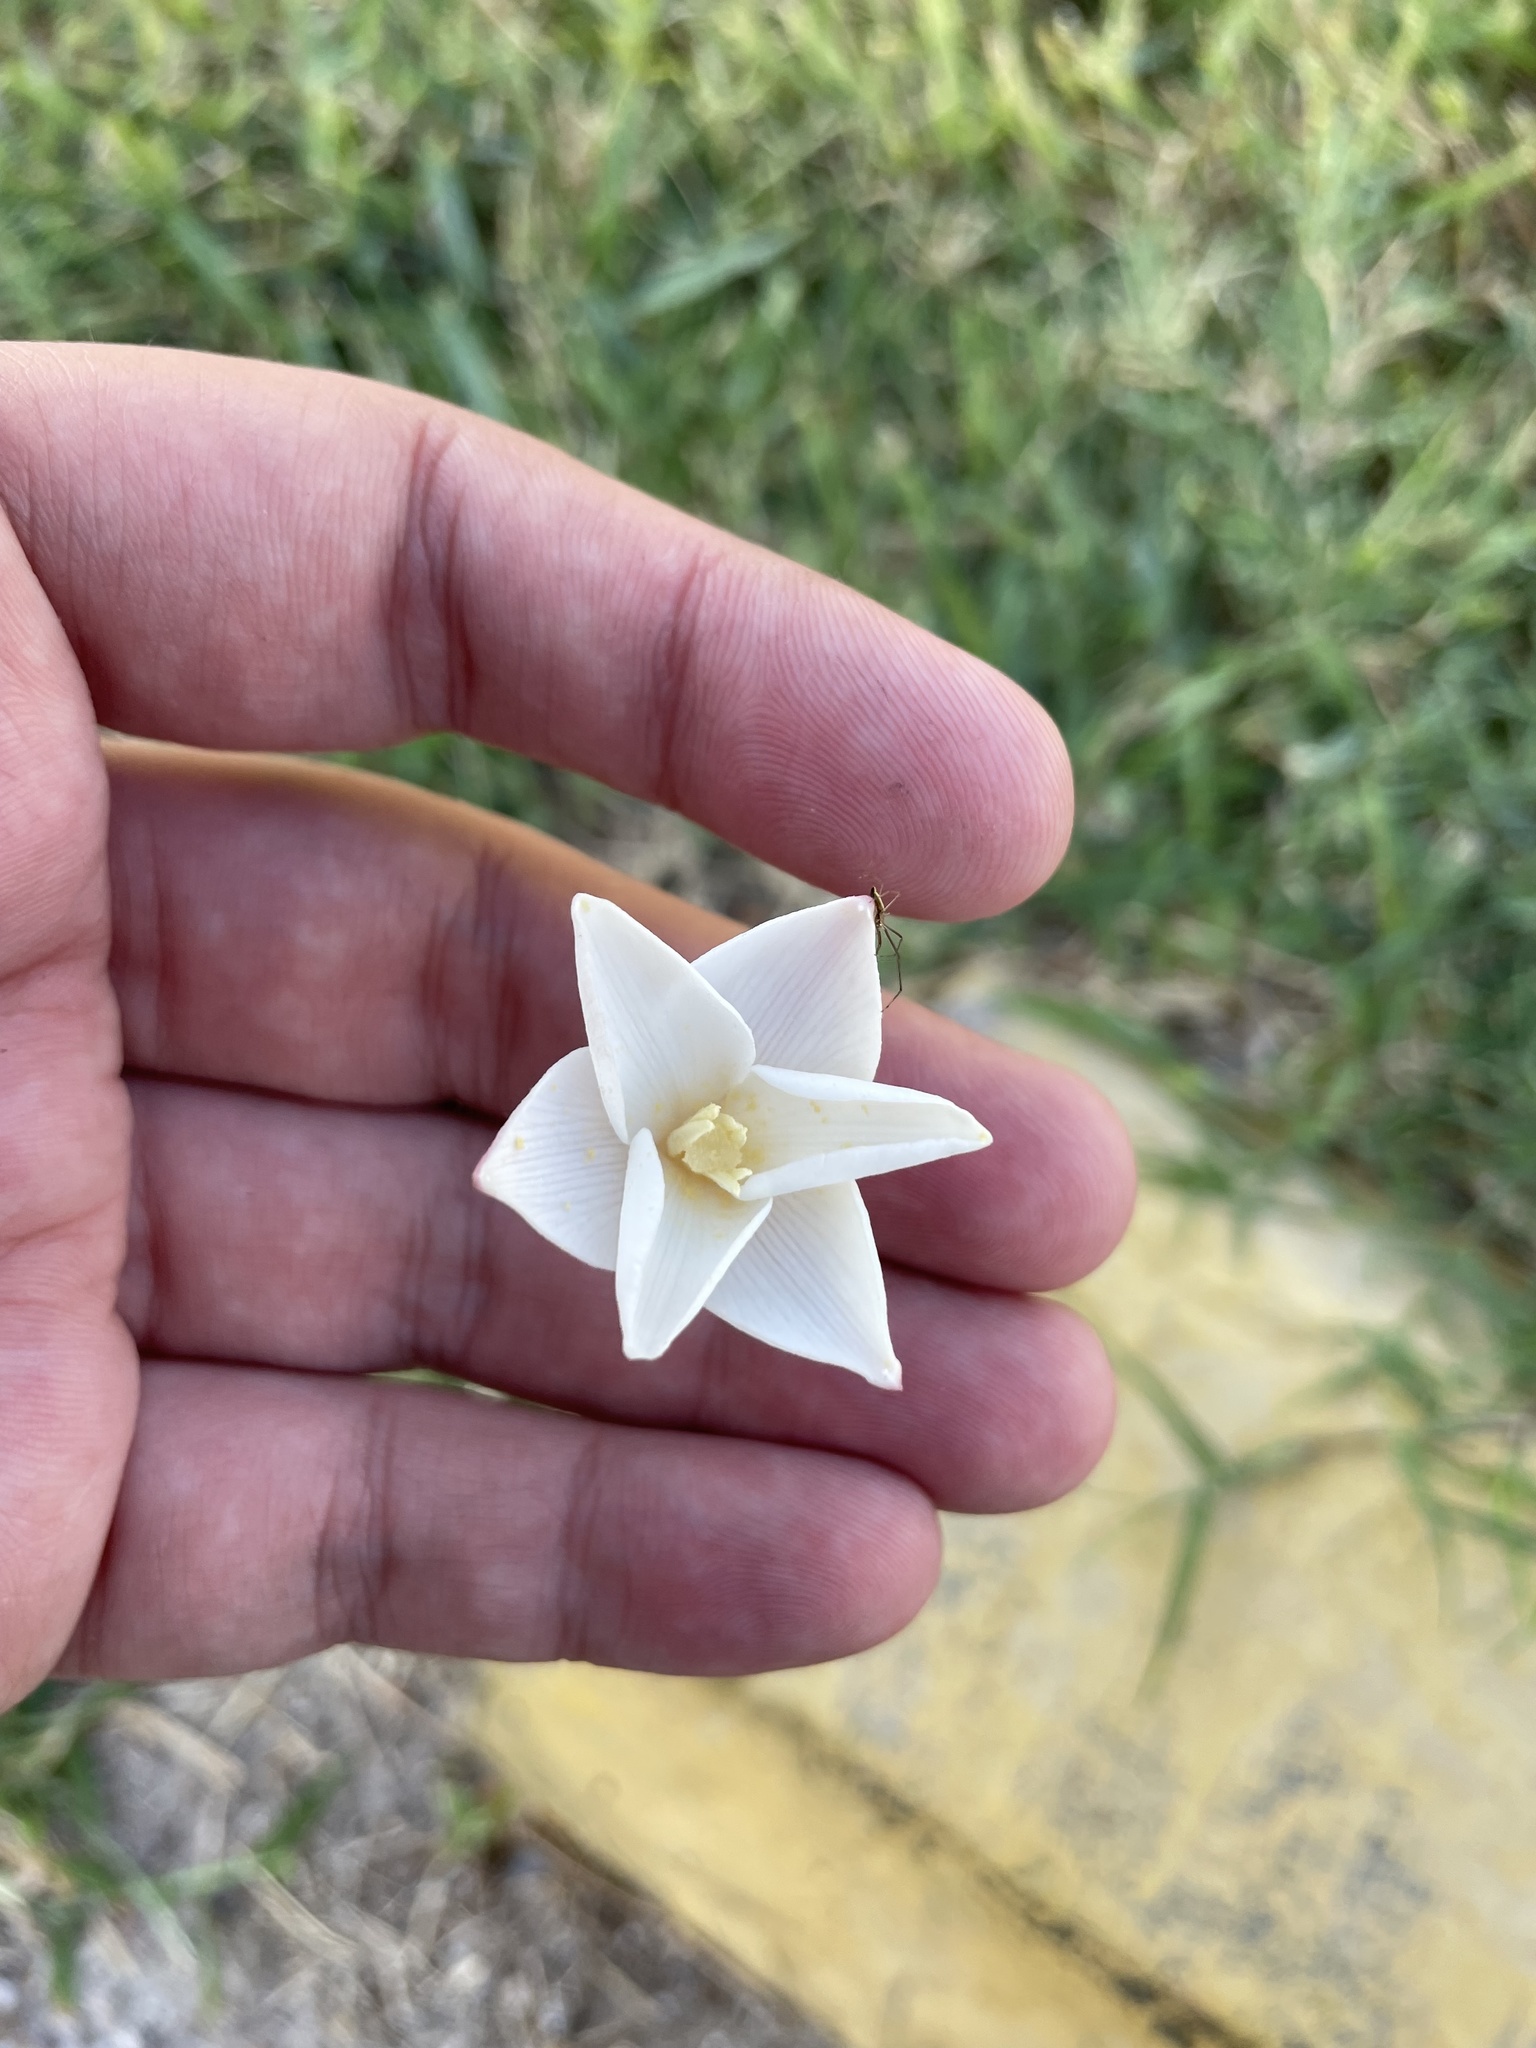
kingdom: Plantae
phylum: Tracheophyta
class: Liliopsida
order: Asparagales
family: Amaryllidaceae
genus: Zephyranthes
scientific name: Zephyranthes chlorosolen
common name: Evening rain-lily
